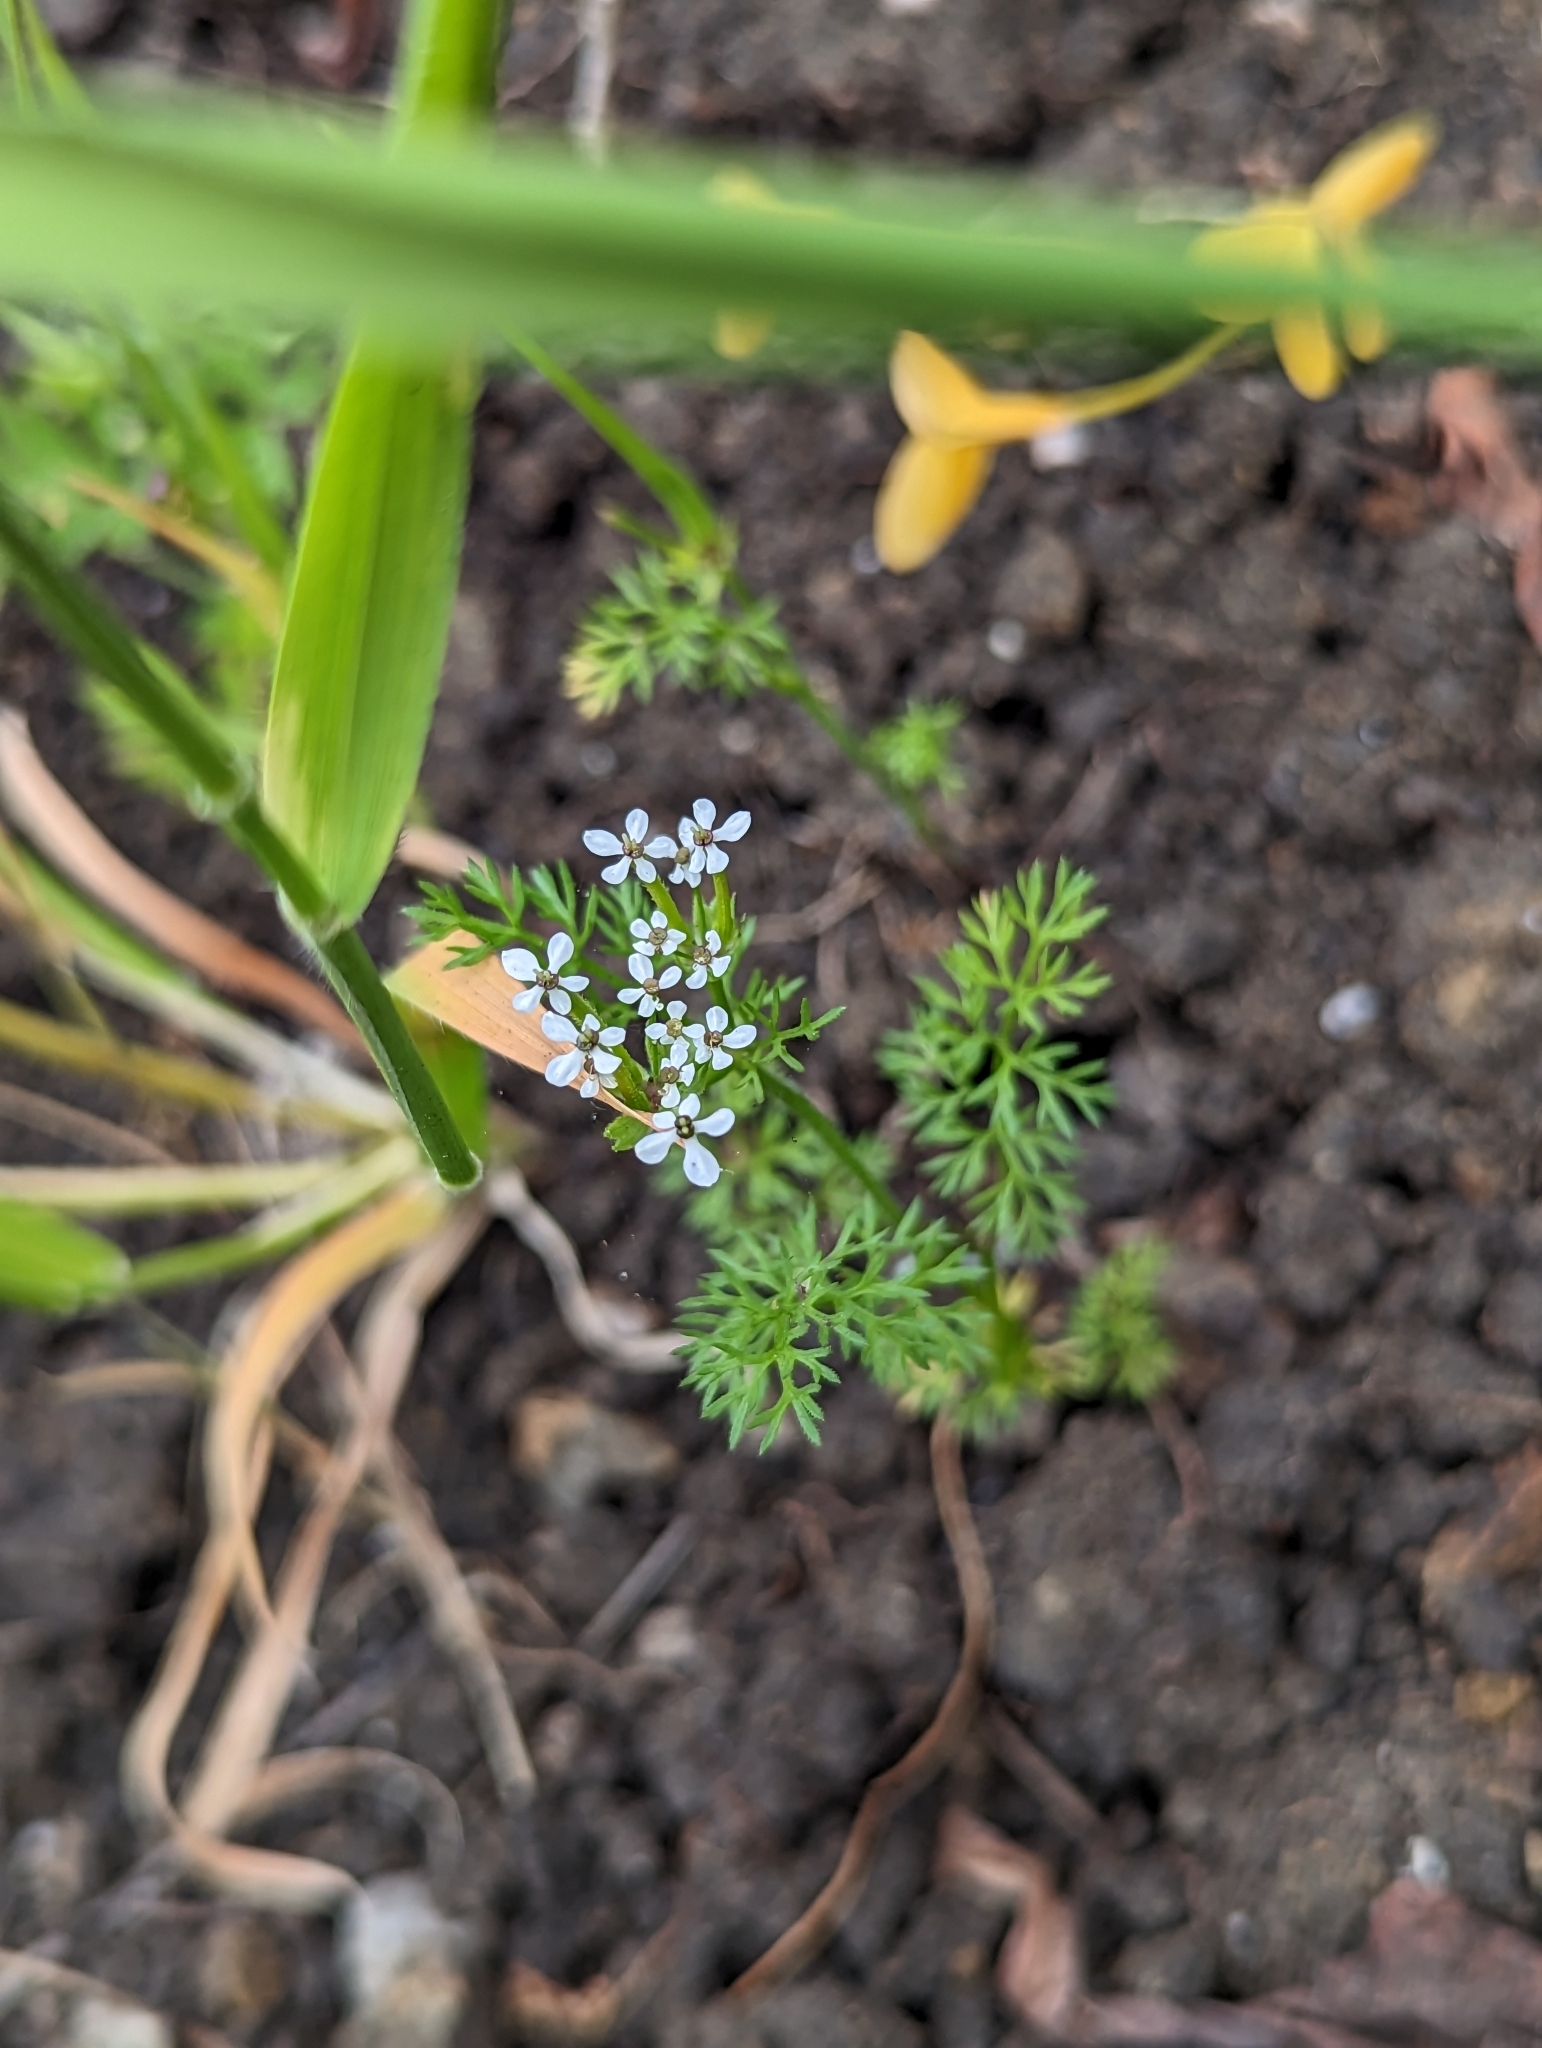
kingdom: Plantae
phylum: Tracheophyta
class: Magnoliopsida
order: Apiales
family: Apiaceae
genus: Scandix
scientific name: Scandix pecten-veneris
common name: Shepherd's-needle
